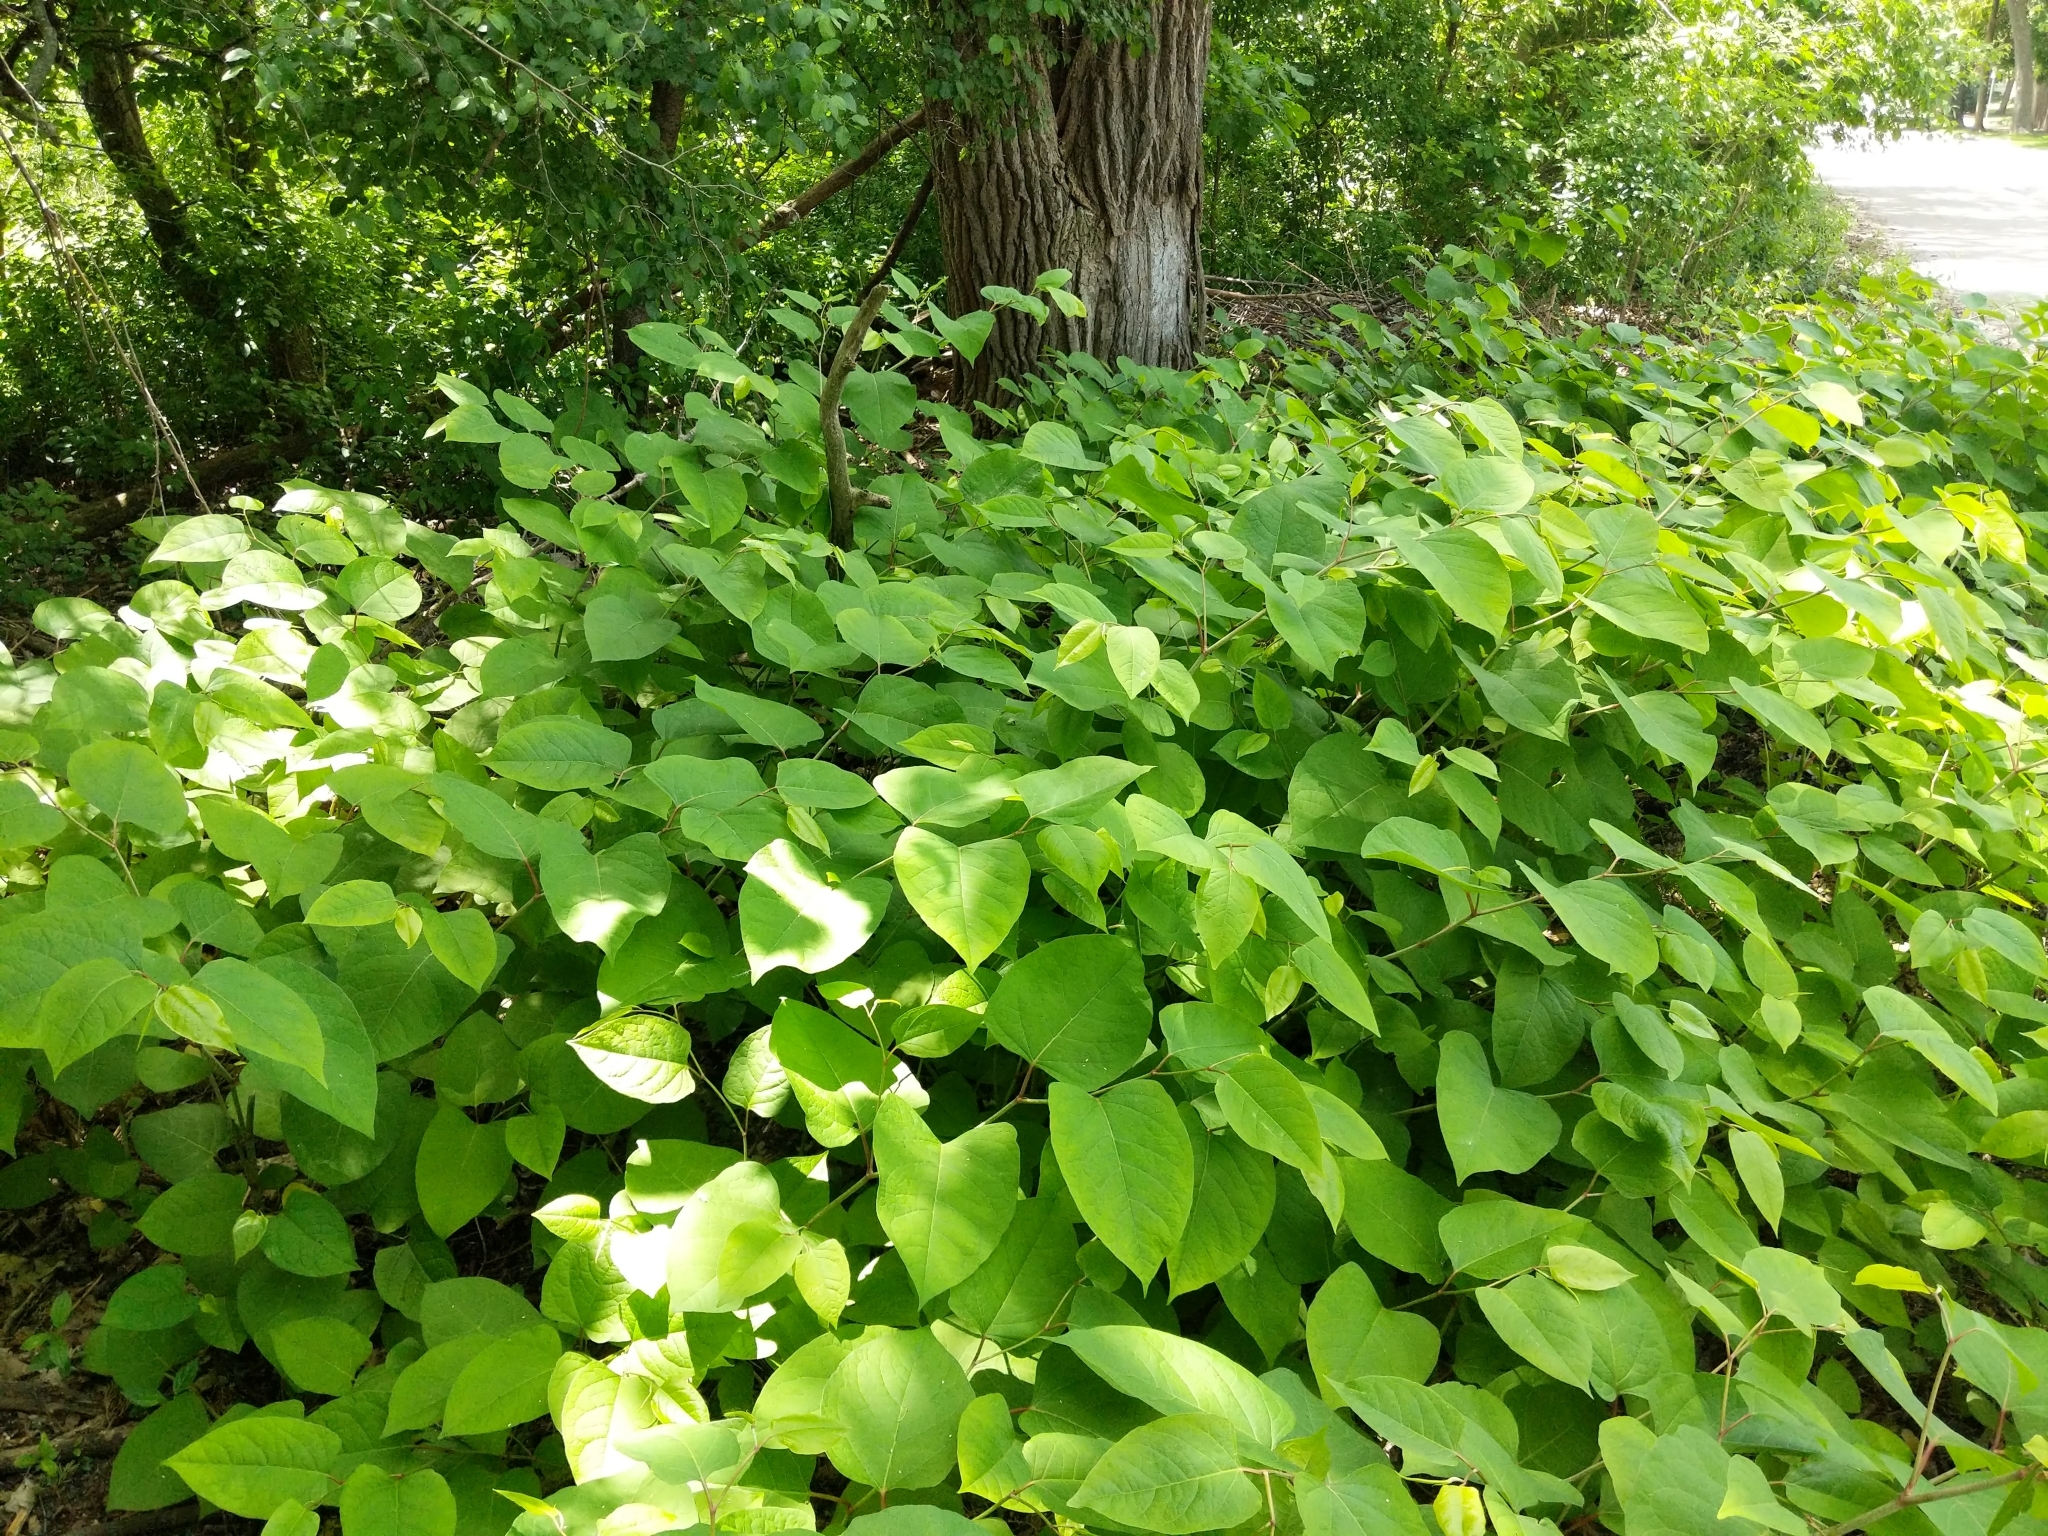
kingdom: Plantae
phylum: Tracheophyta
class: Magnoliopsida
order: Caryophyllales
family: Polygonaceae
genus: Reynoutria
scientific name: Reynoutria japonica
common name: Japanese knotweed
